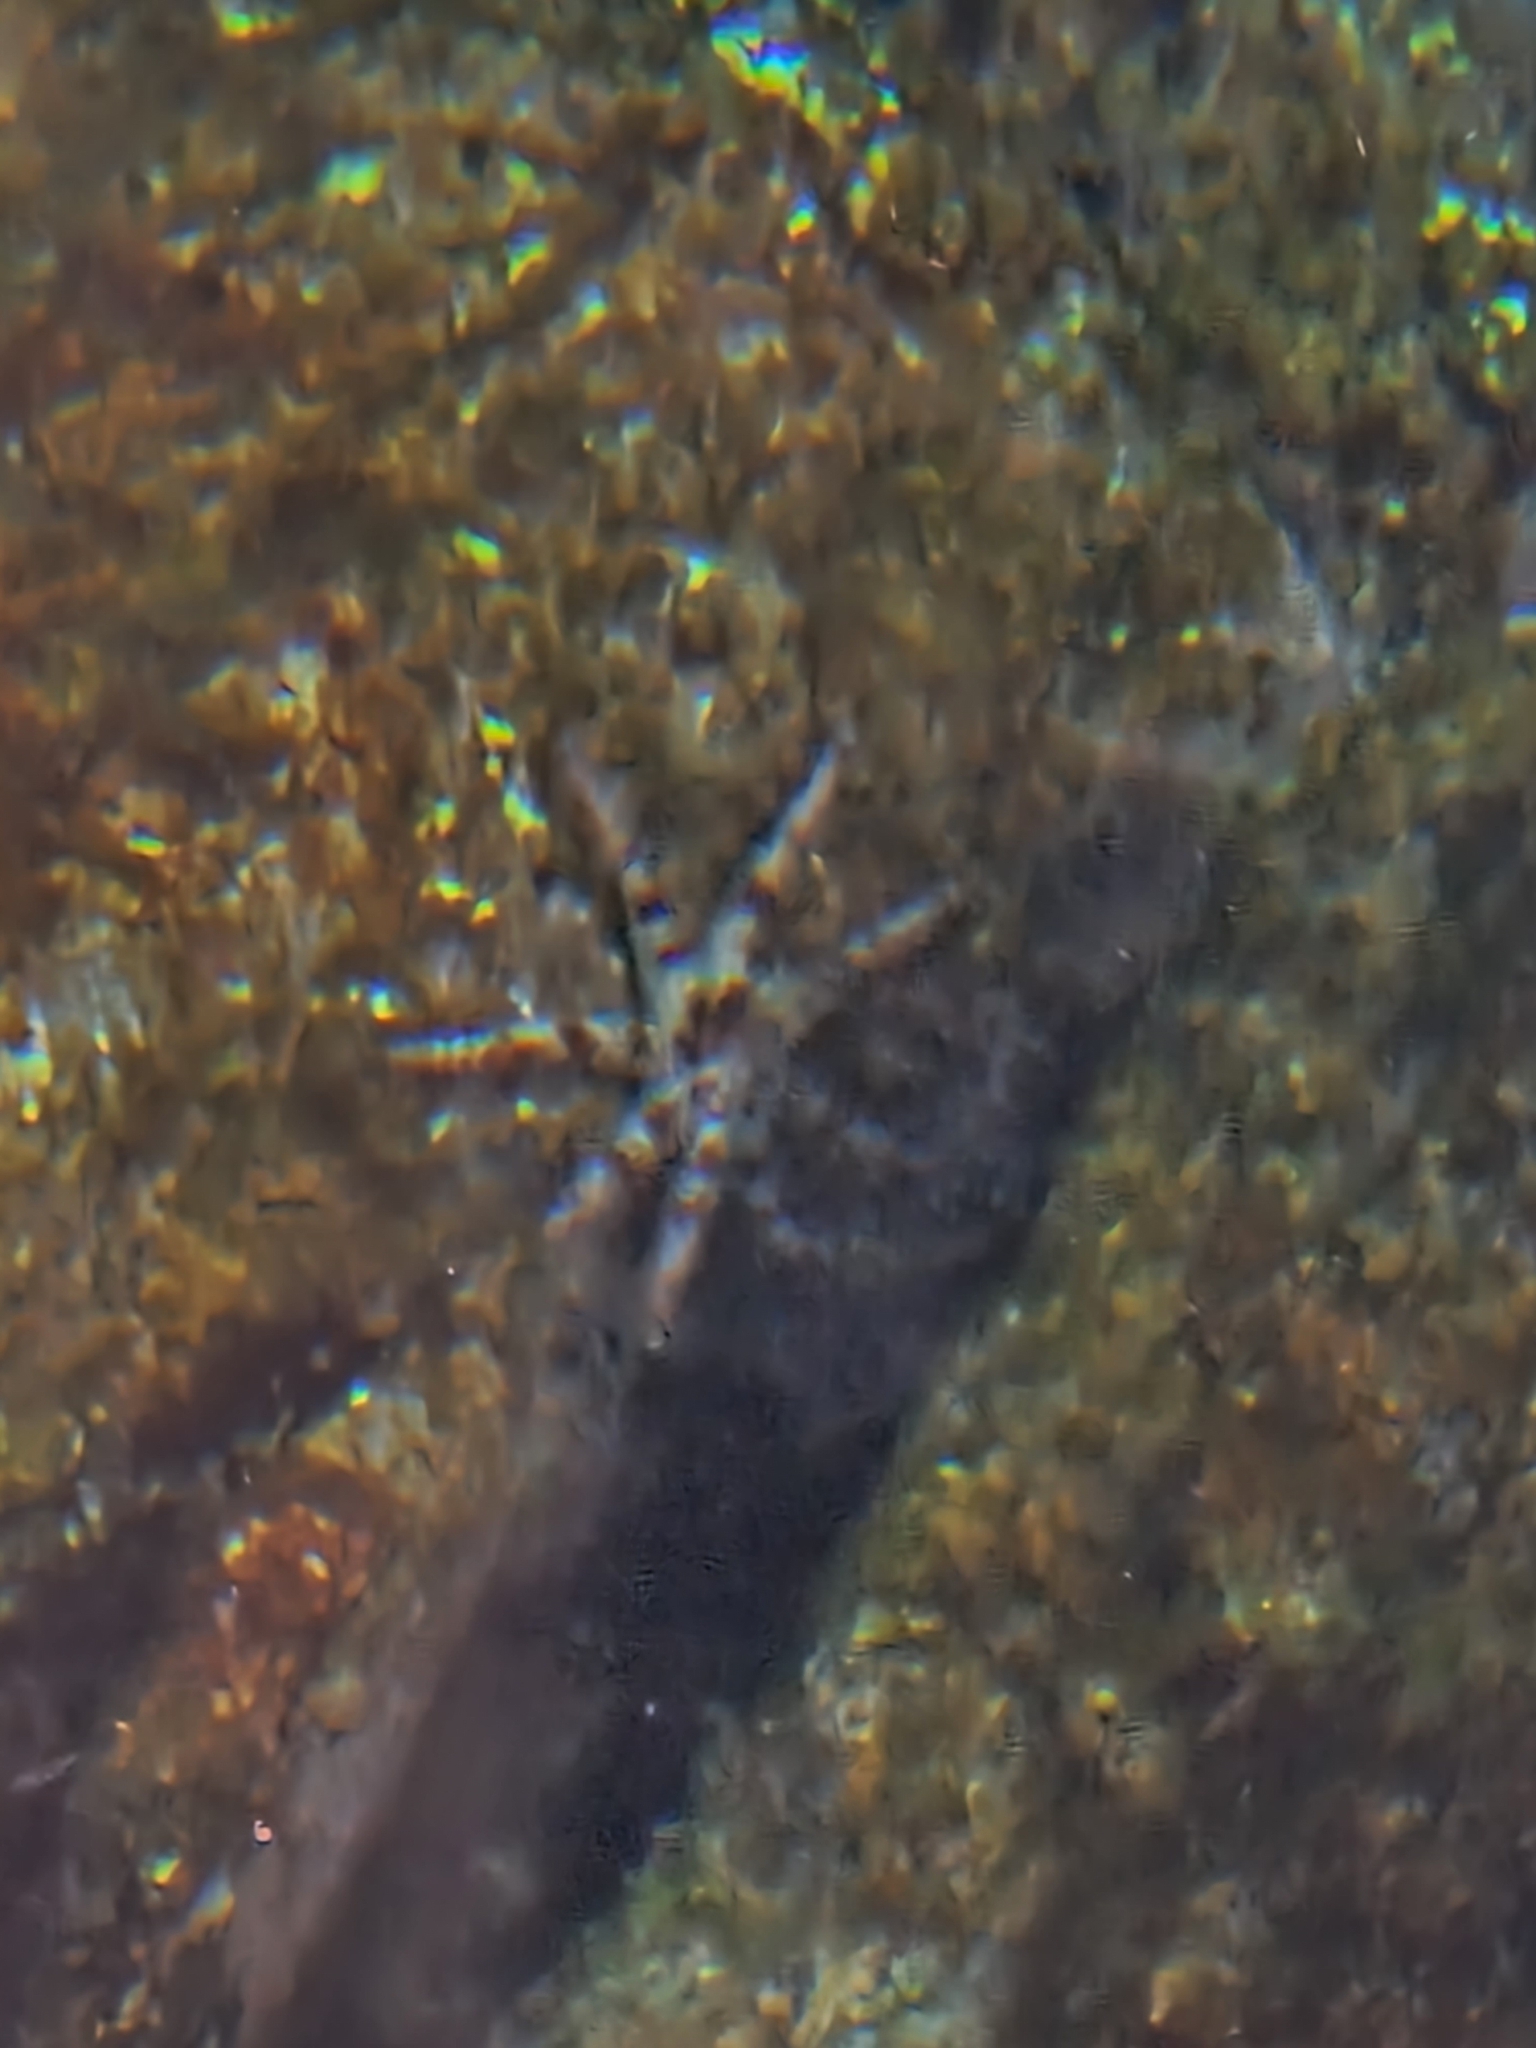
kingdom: Animalia
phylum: Echinodermata
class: Asteroidea
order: Forcipulatida
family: Asteriidae
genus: Coscinasterias
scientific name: Coscinasterias tenuispina
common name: Blue spiny starfish
